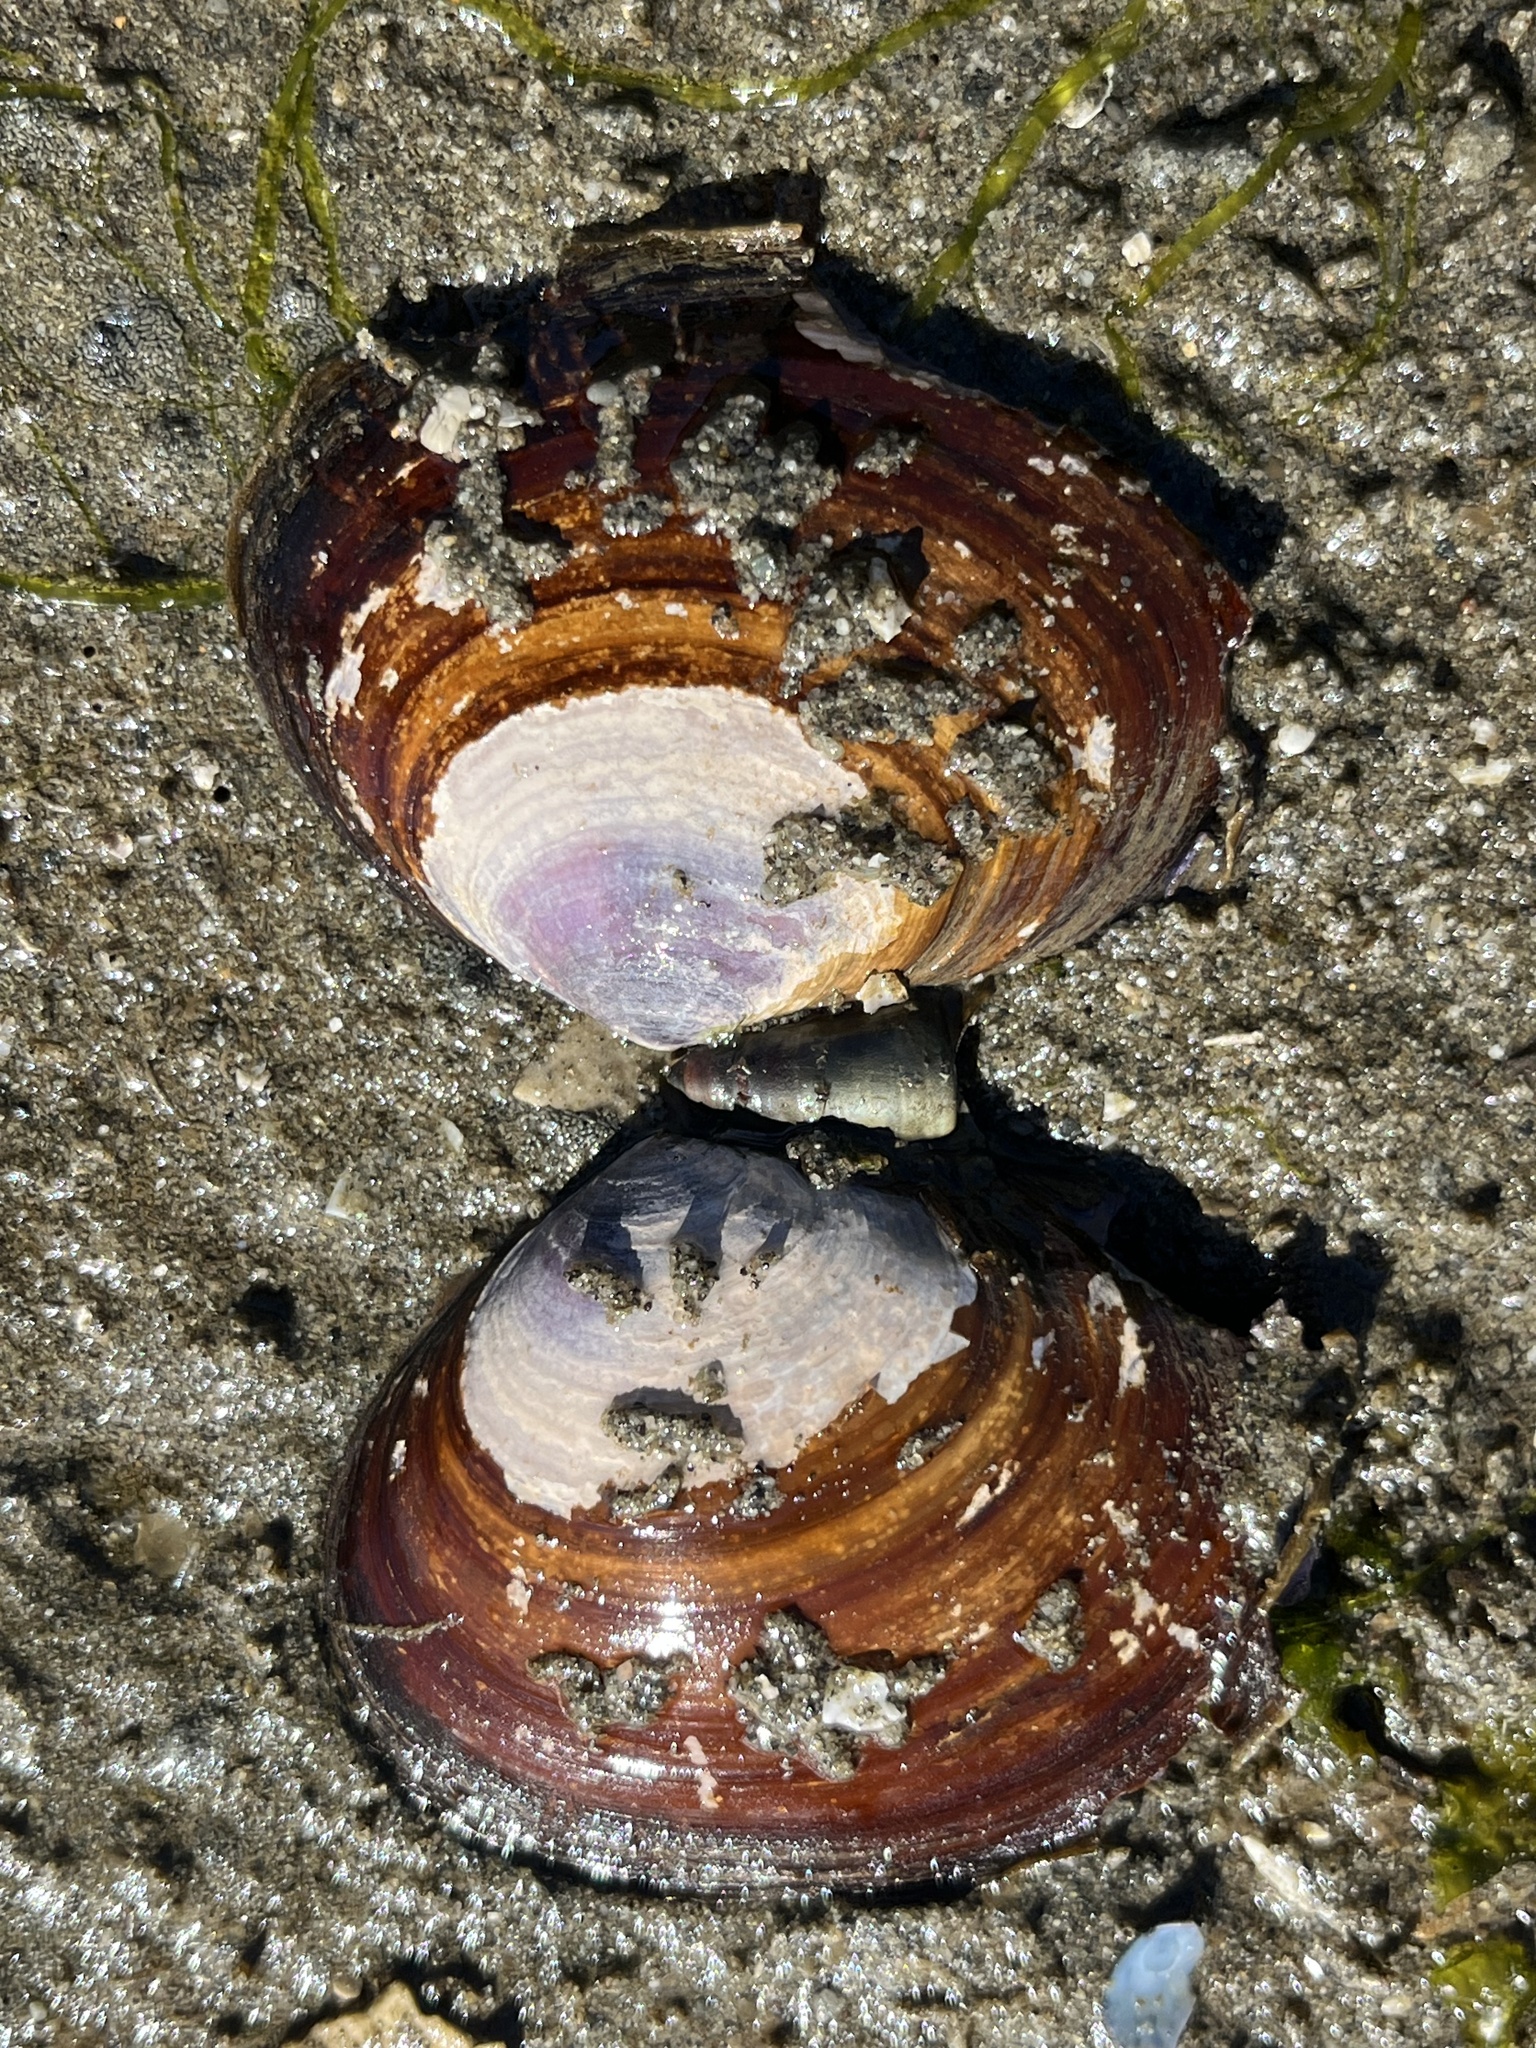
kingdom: Animalia
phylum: Mollusca
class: Bivalvia
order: Cardiida
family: Psammobiidae
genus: Nuttallia
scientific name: Nuttallia obscurata
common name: Purple mahogany-clam
